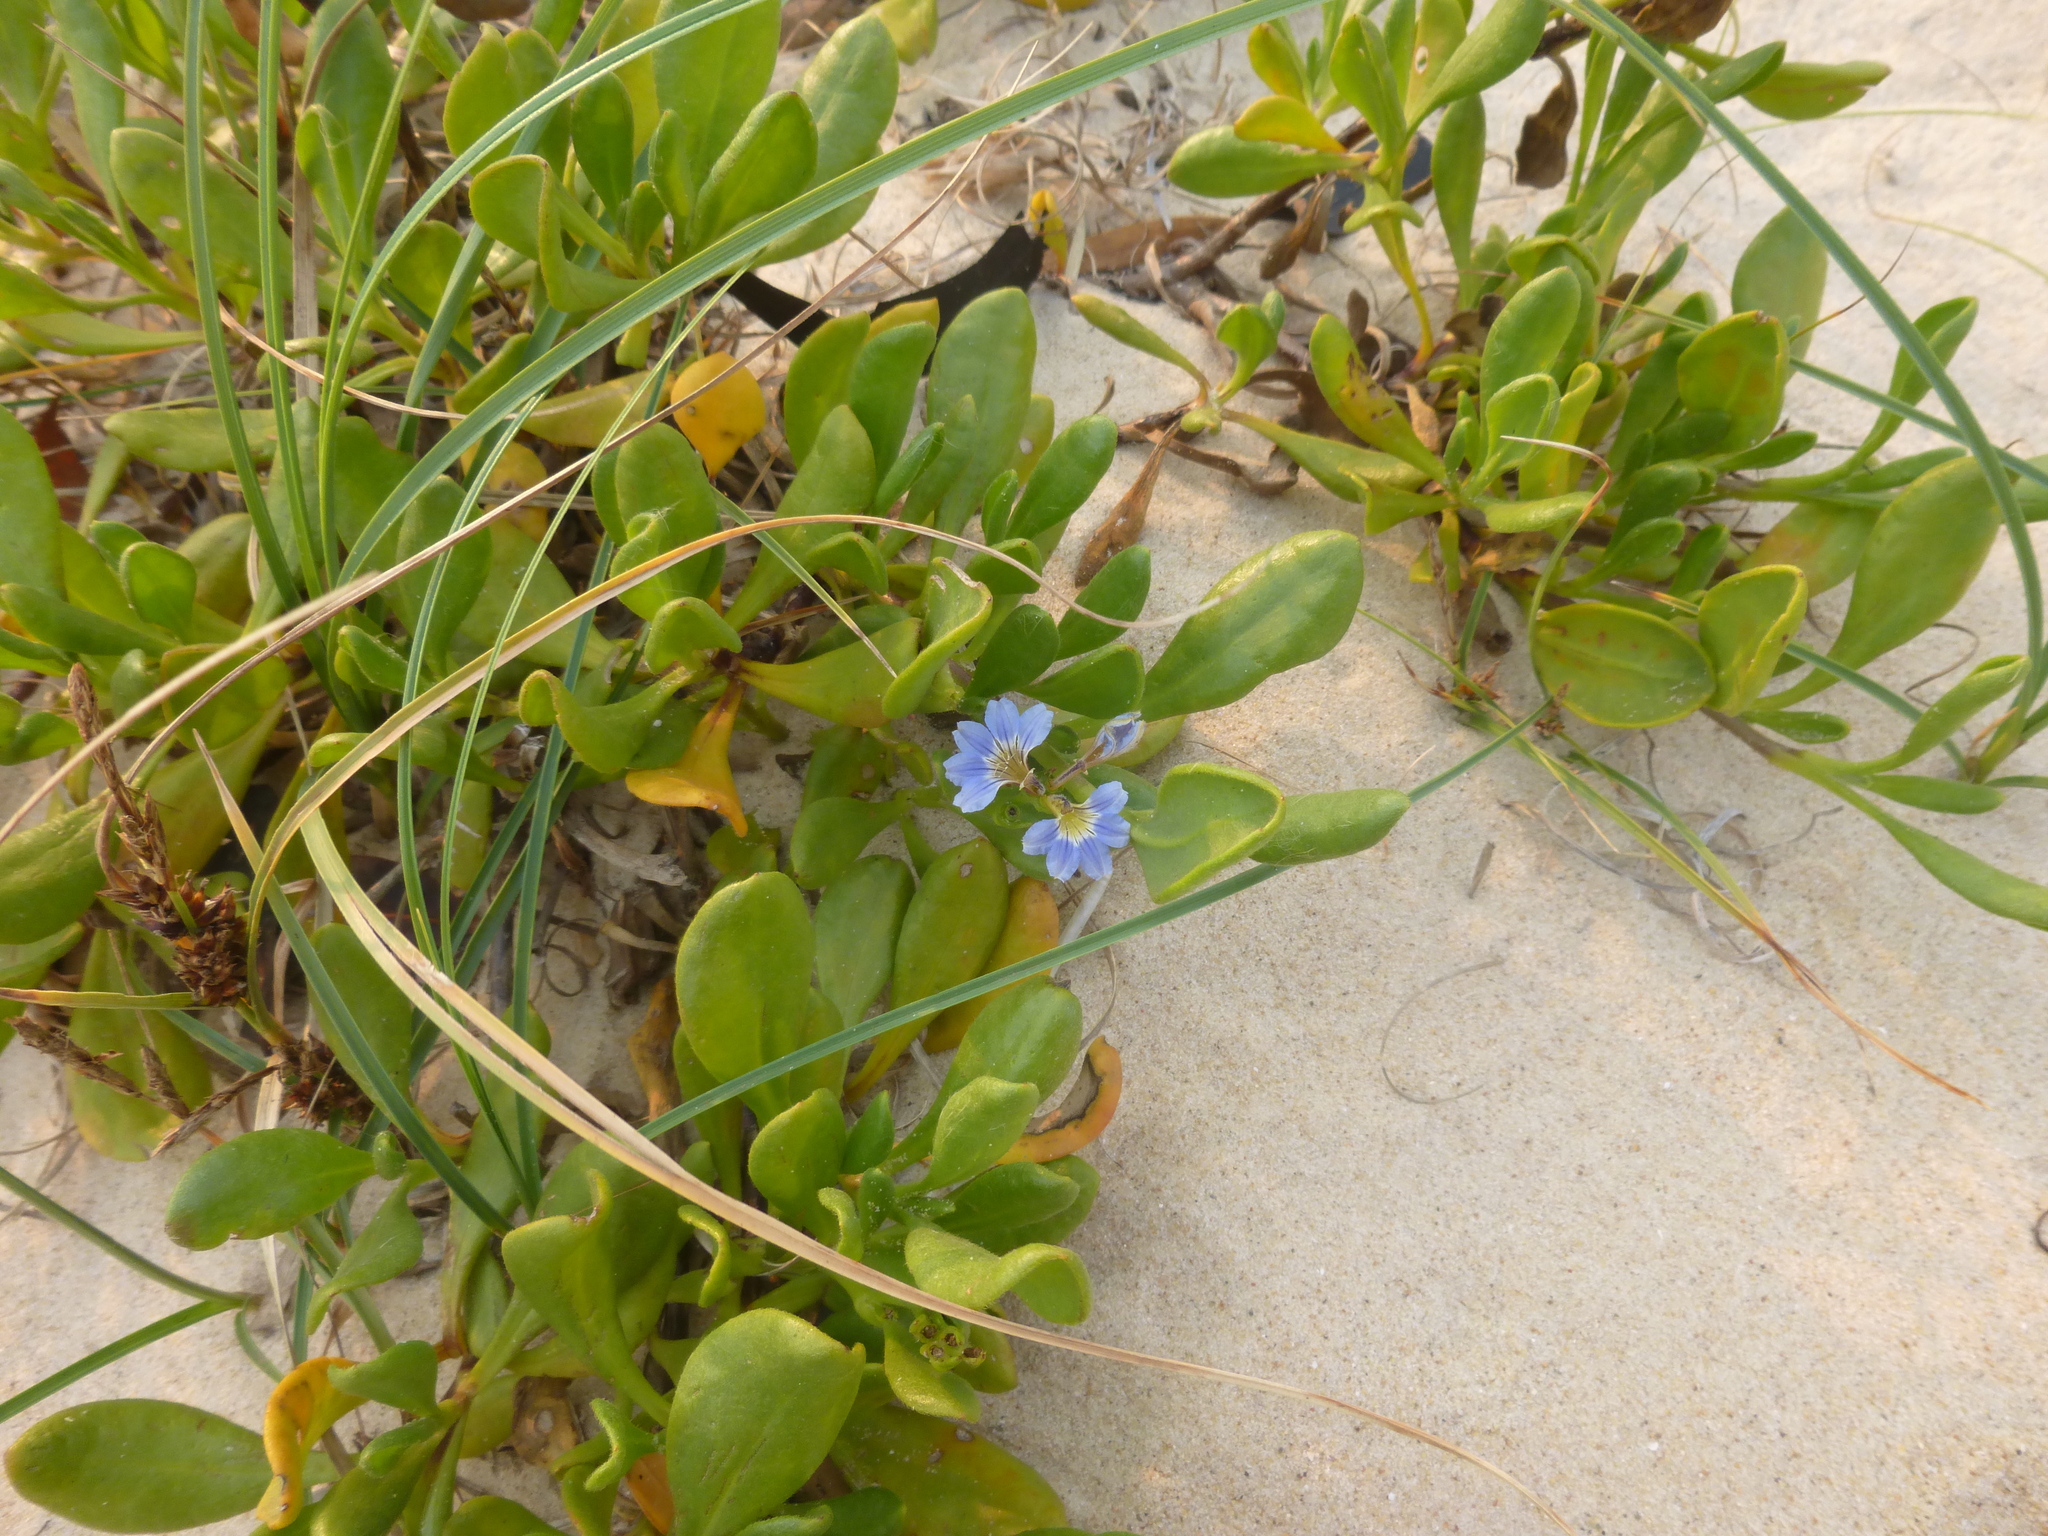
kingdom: Plantae
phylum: Tracheophyta
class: Magnoliopsida
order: Asterales
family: Goodeniaceae
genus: Scaevola
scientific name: Scaevola calendulacea
